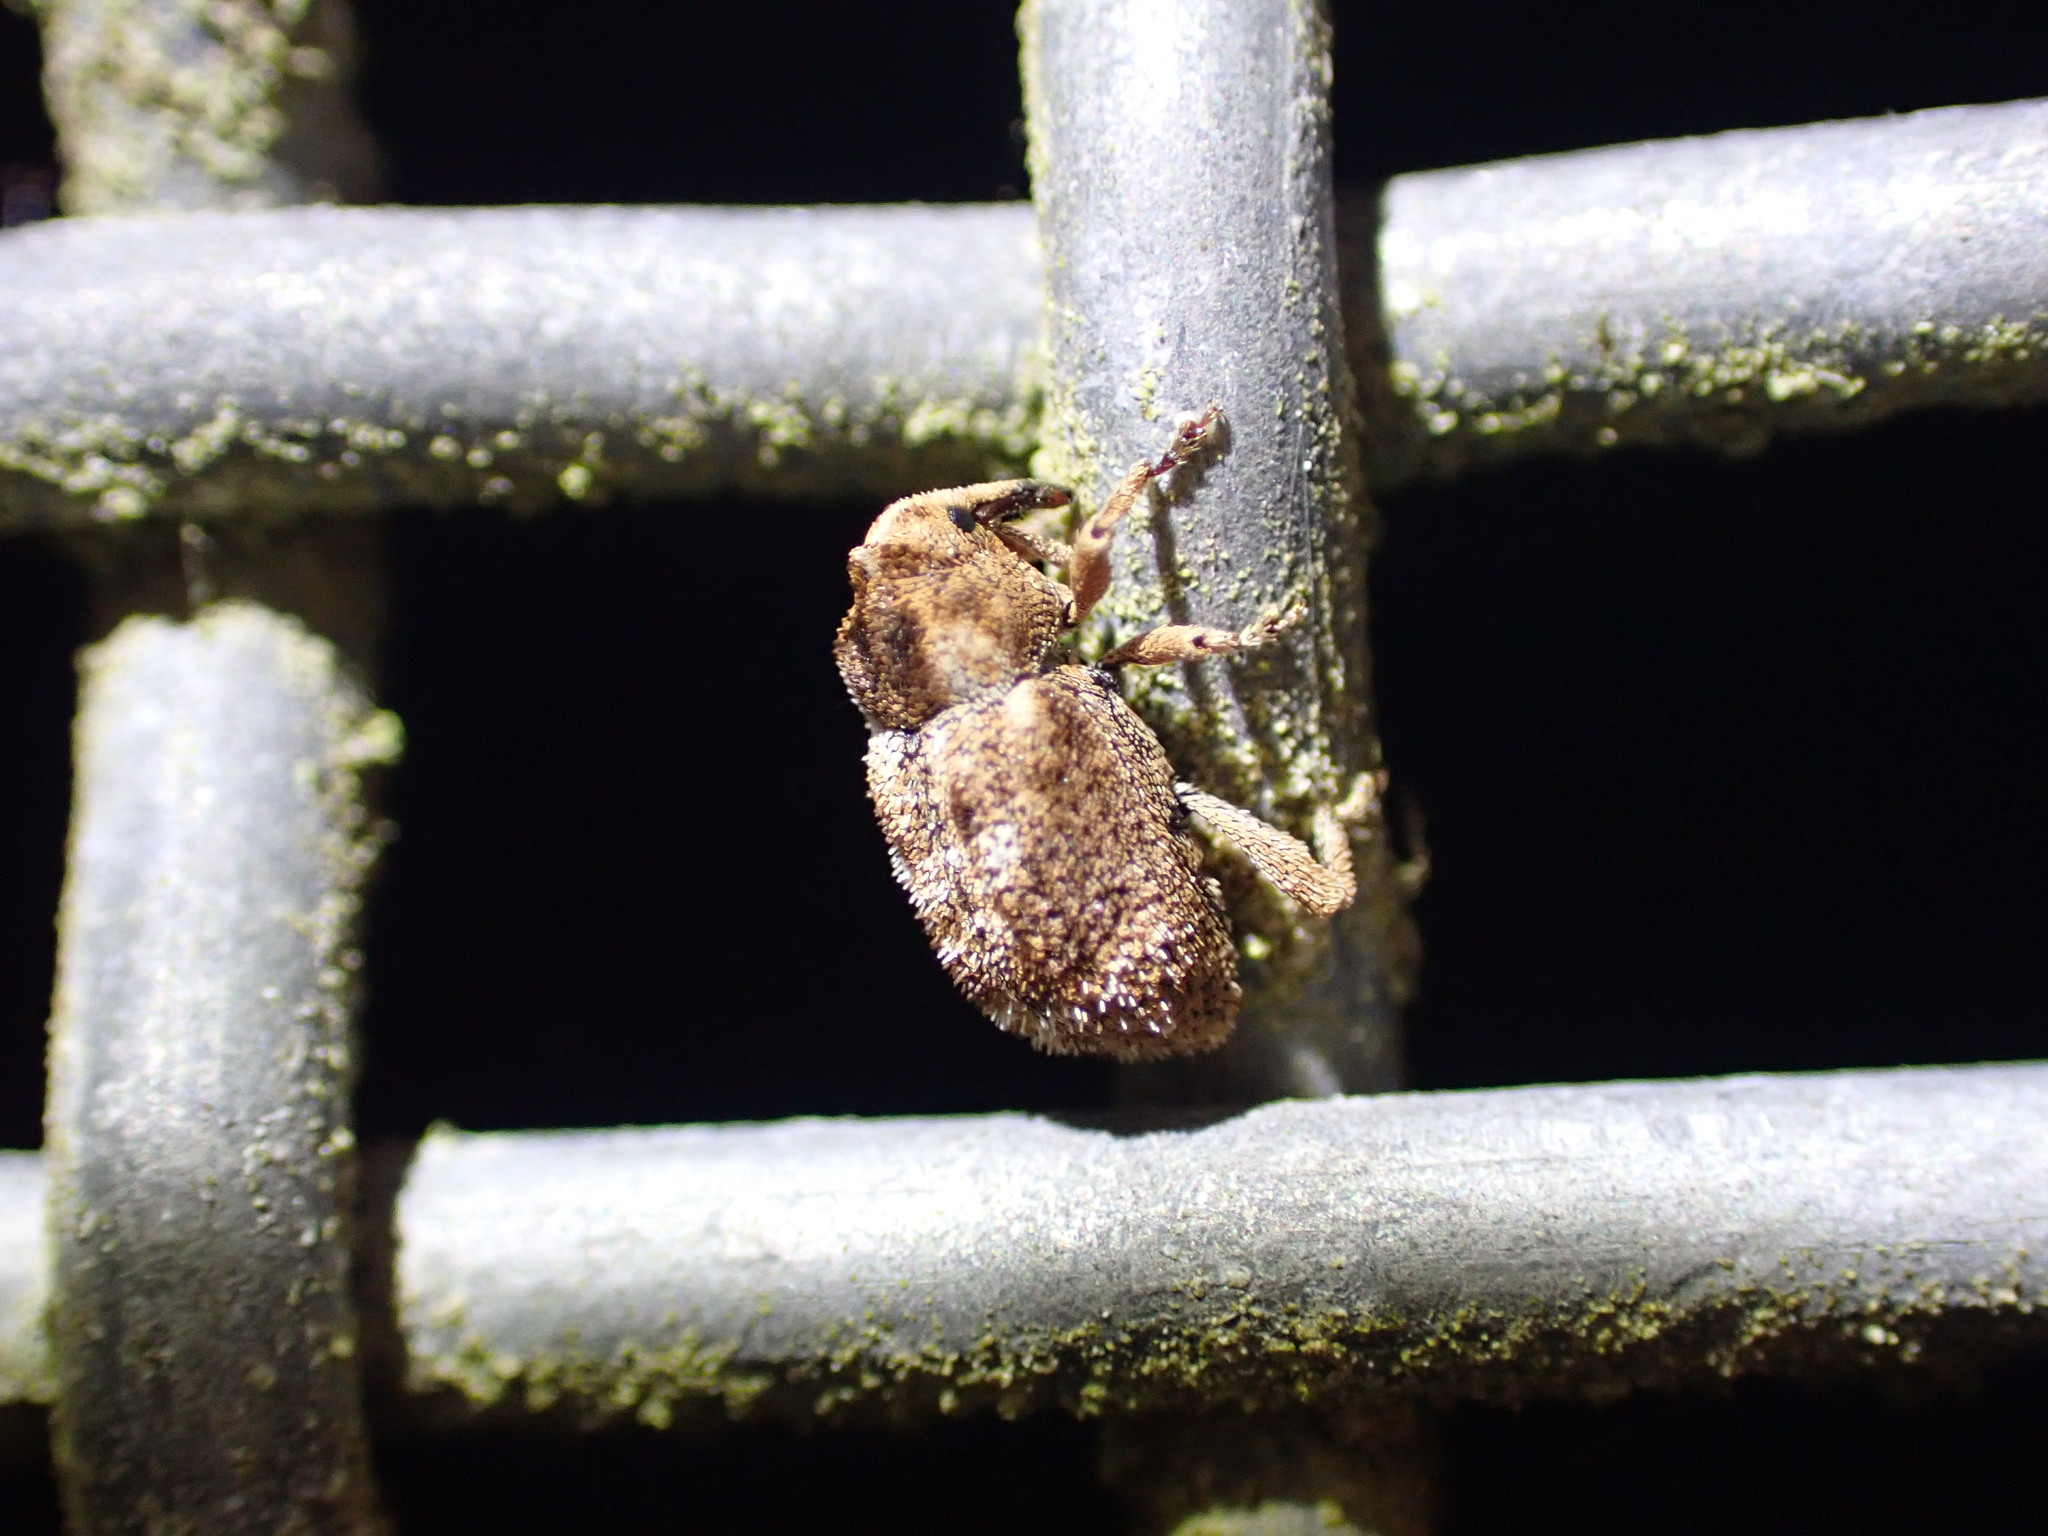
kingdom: Animalia
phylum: Arthropoda
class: Insecta
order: Coleoptera
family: Curculionidae
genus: Mesoreda
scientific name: Mesoreda sulcifrons
